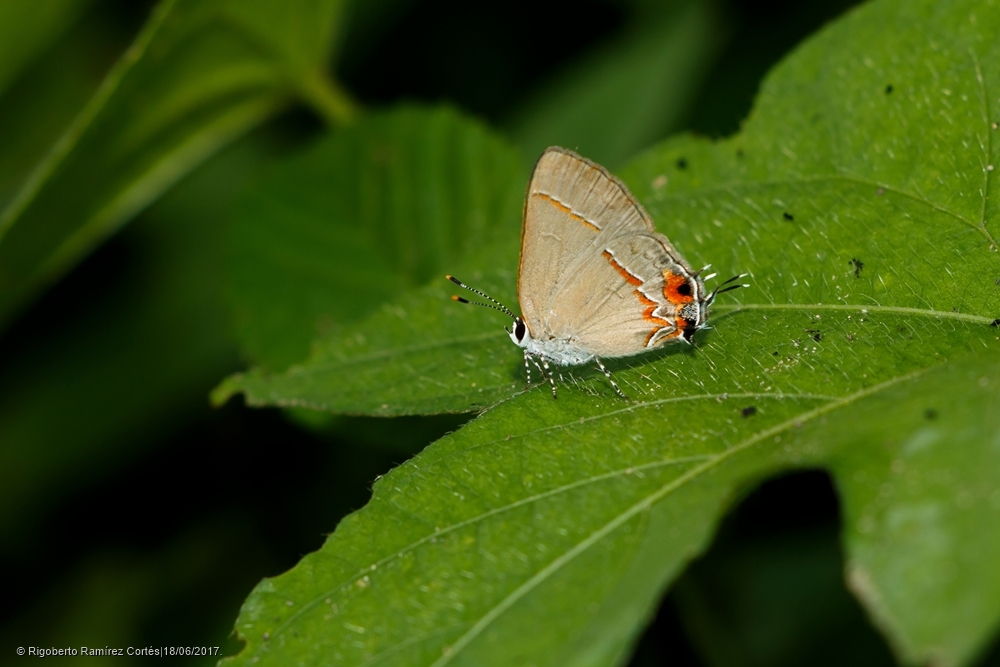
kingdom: Animalia
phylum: Arthropoda
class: Insecta
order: Lepidoptera
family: Lycaenidae
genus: Thecla
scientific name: Thecla joya
